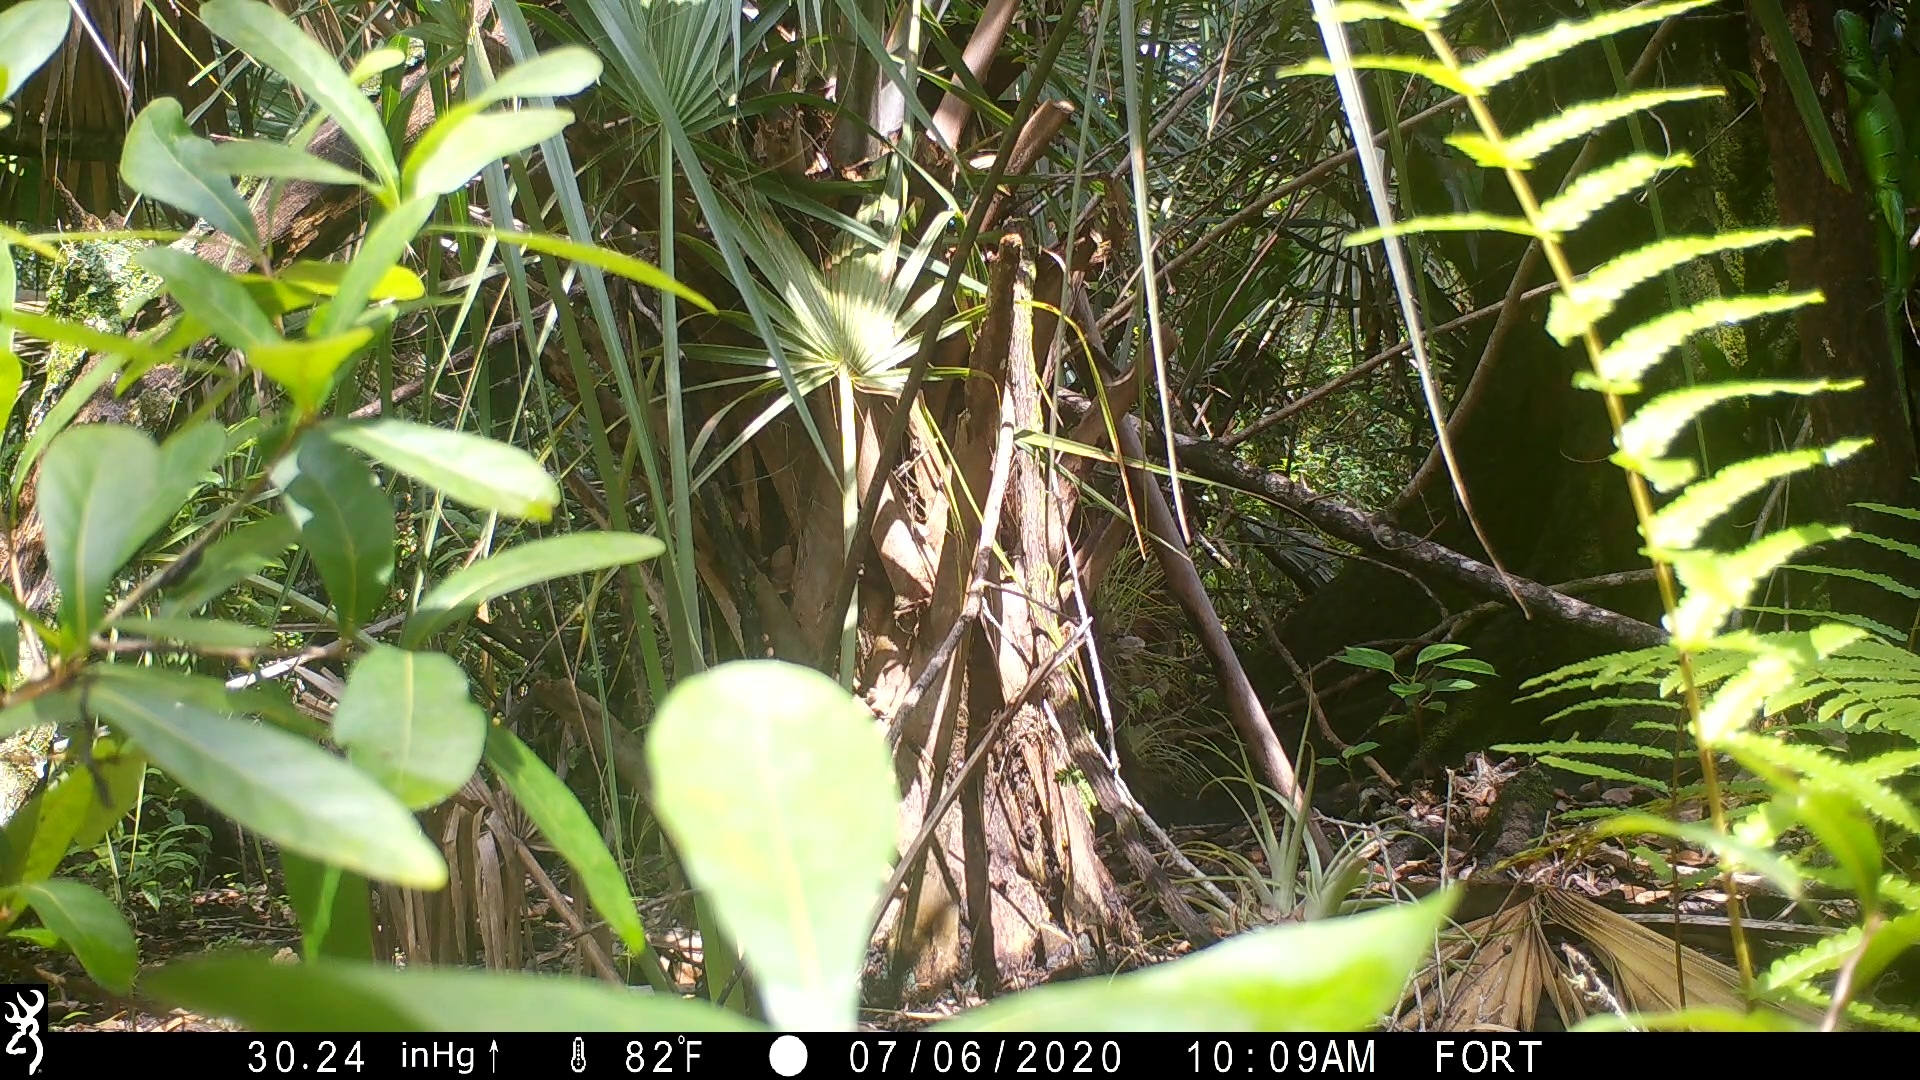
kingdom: Animalia
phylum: Chordata
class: Squamata
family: Iguanidae
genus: Iguana
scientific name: Iguana iguana
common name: Green iguana
